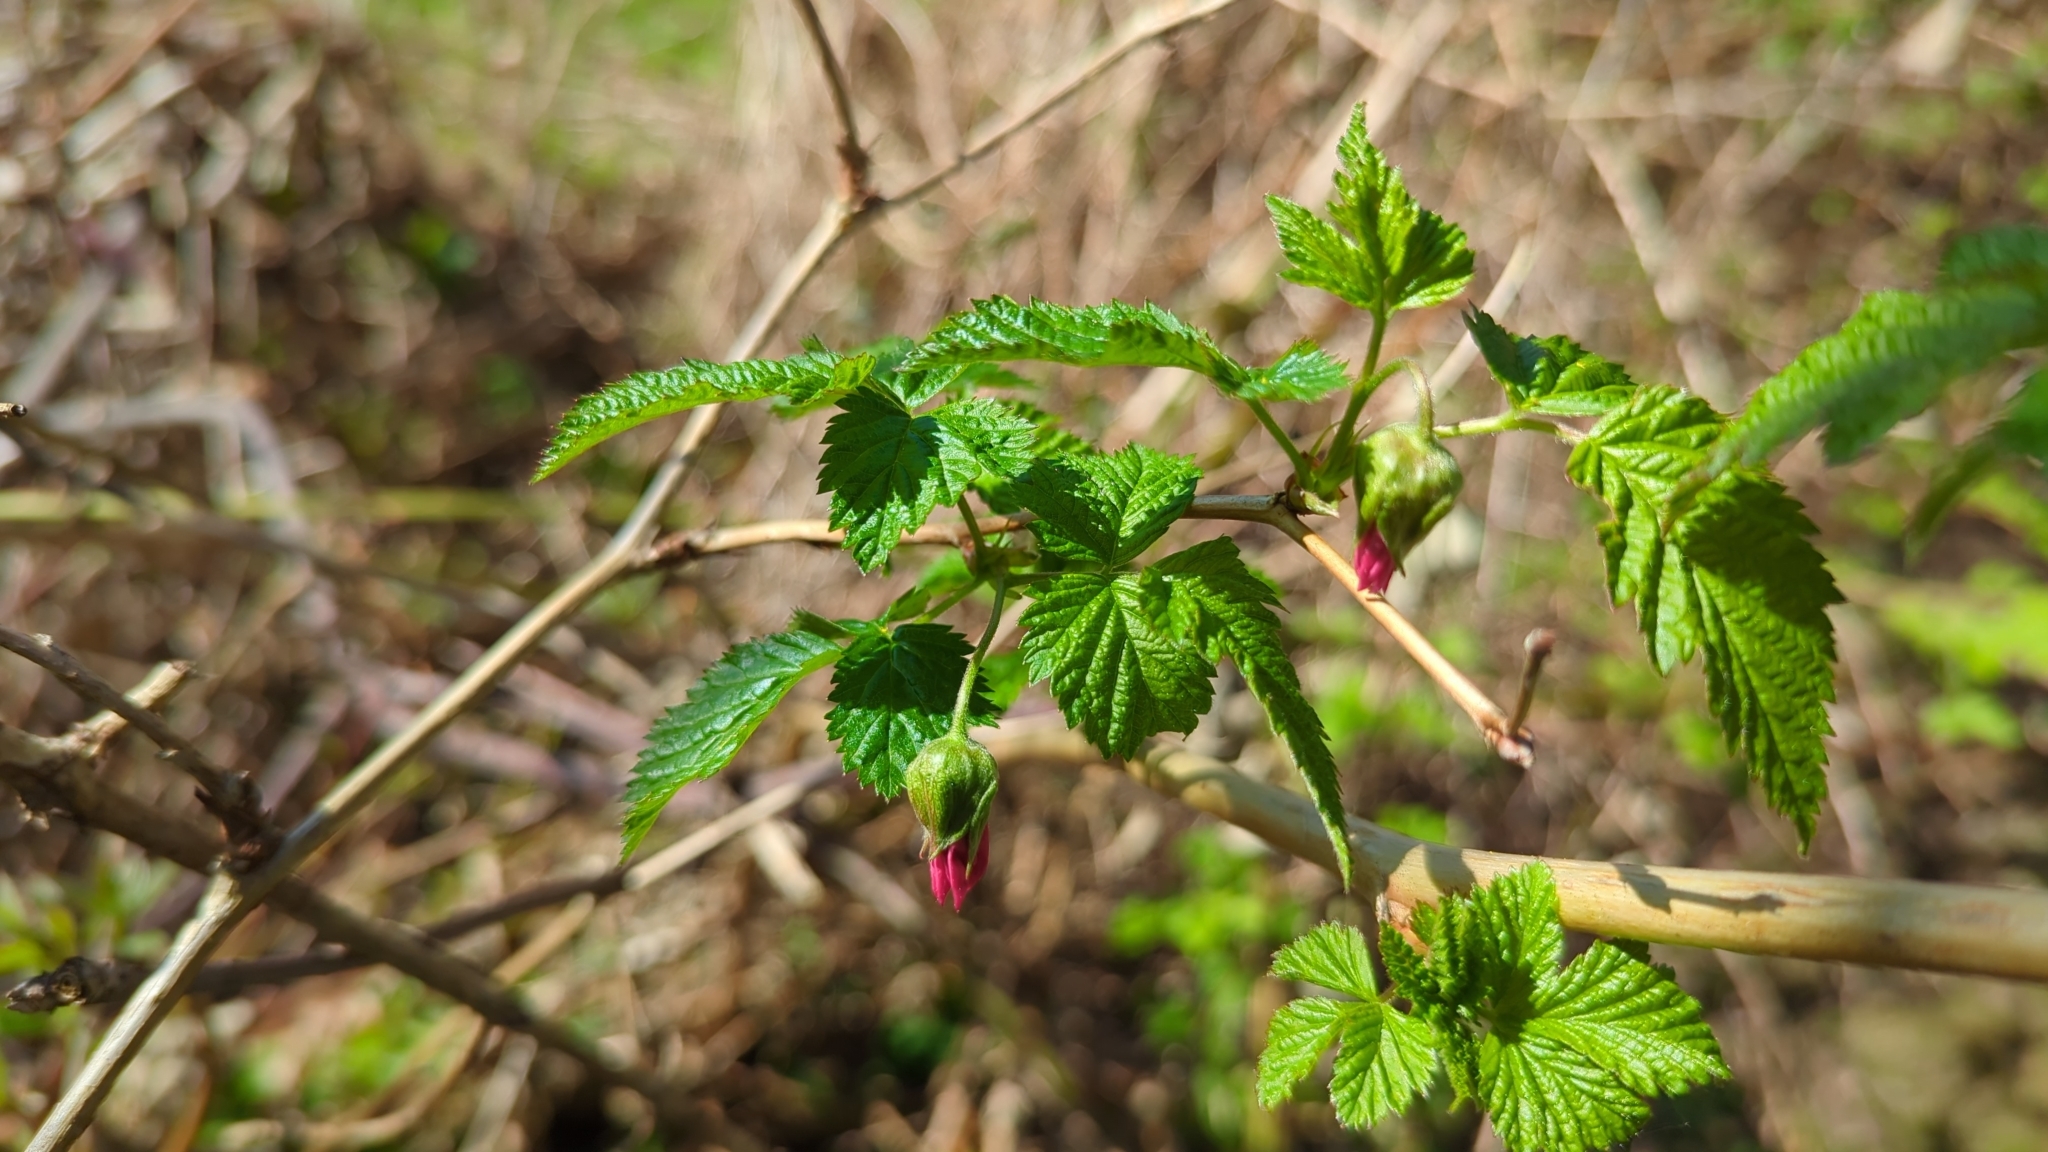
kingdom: Plantae
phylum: Tracheophyta
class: Magnoliopsida
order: Rosales
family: Rosaceae
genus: Rubus
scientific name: Rubus spectabilis
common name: Salmonberry
